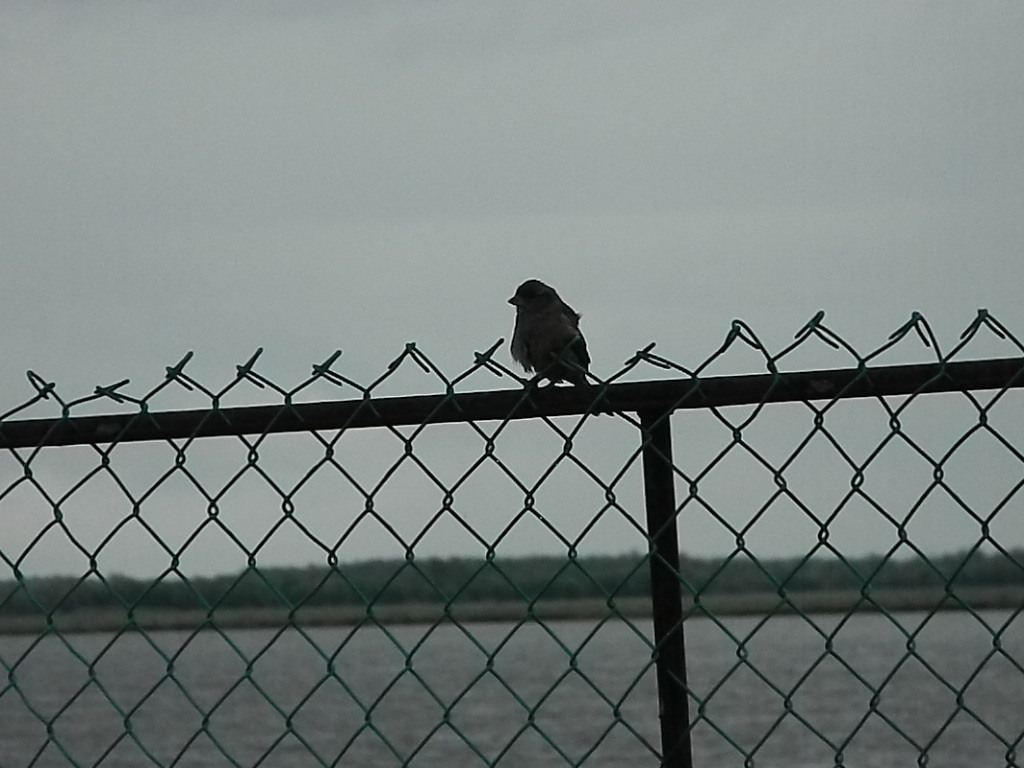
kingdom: Animalia
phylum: Chordata
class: Aves
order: Passeriformes
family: Passeridae
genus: Passer
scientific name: Passer domesticus
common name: House sparrow
